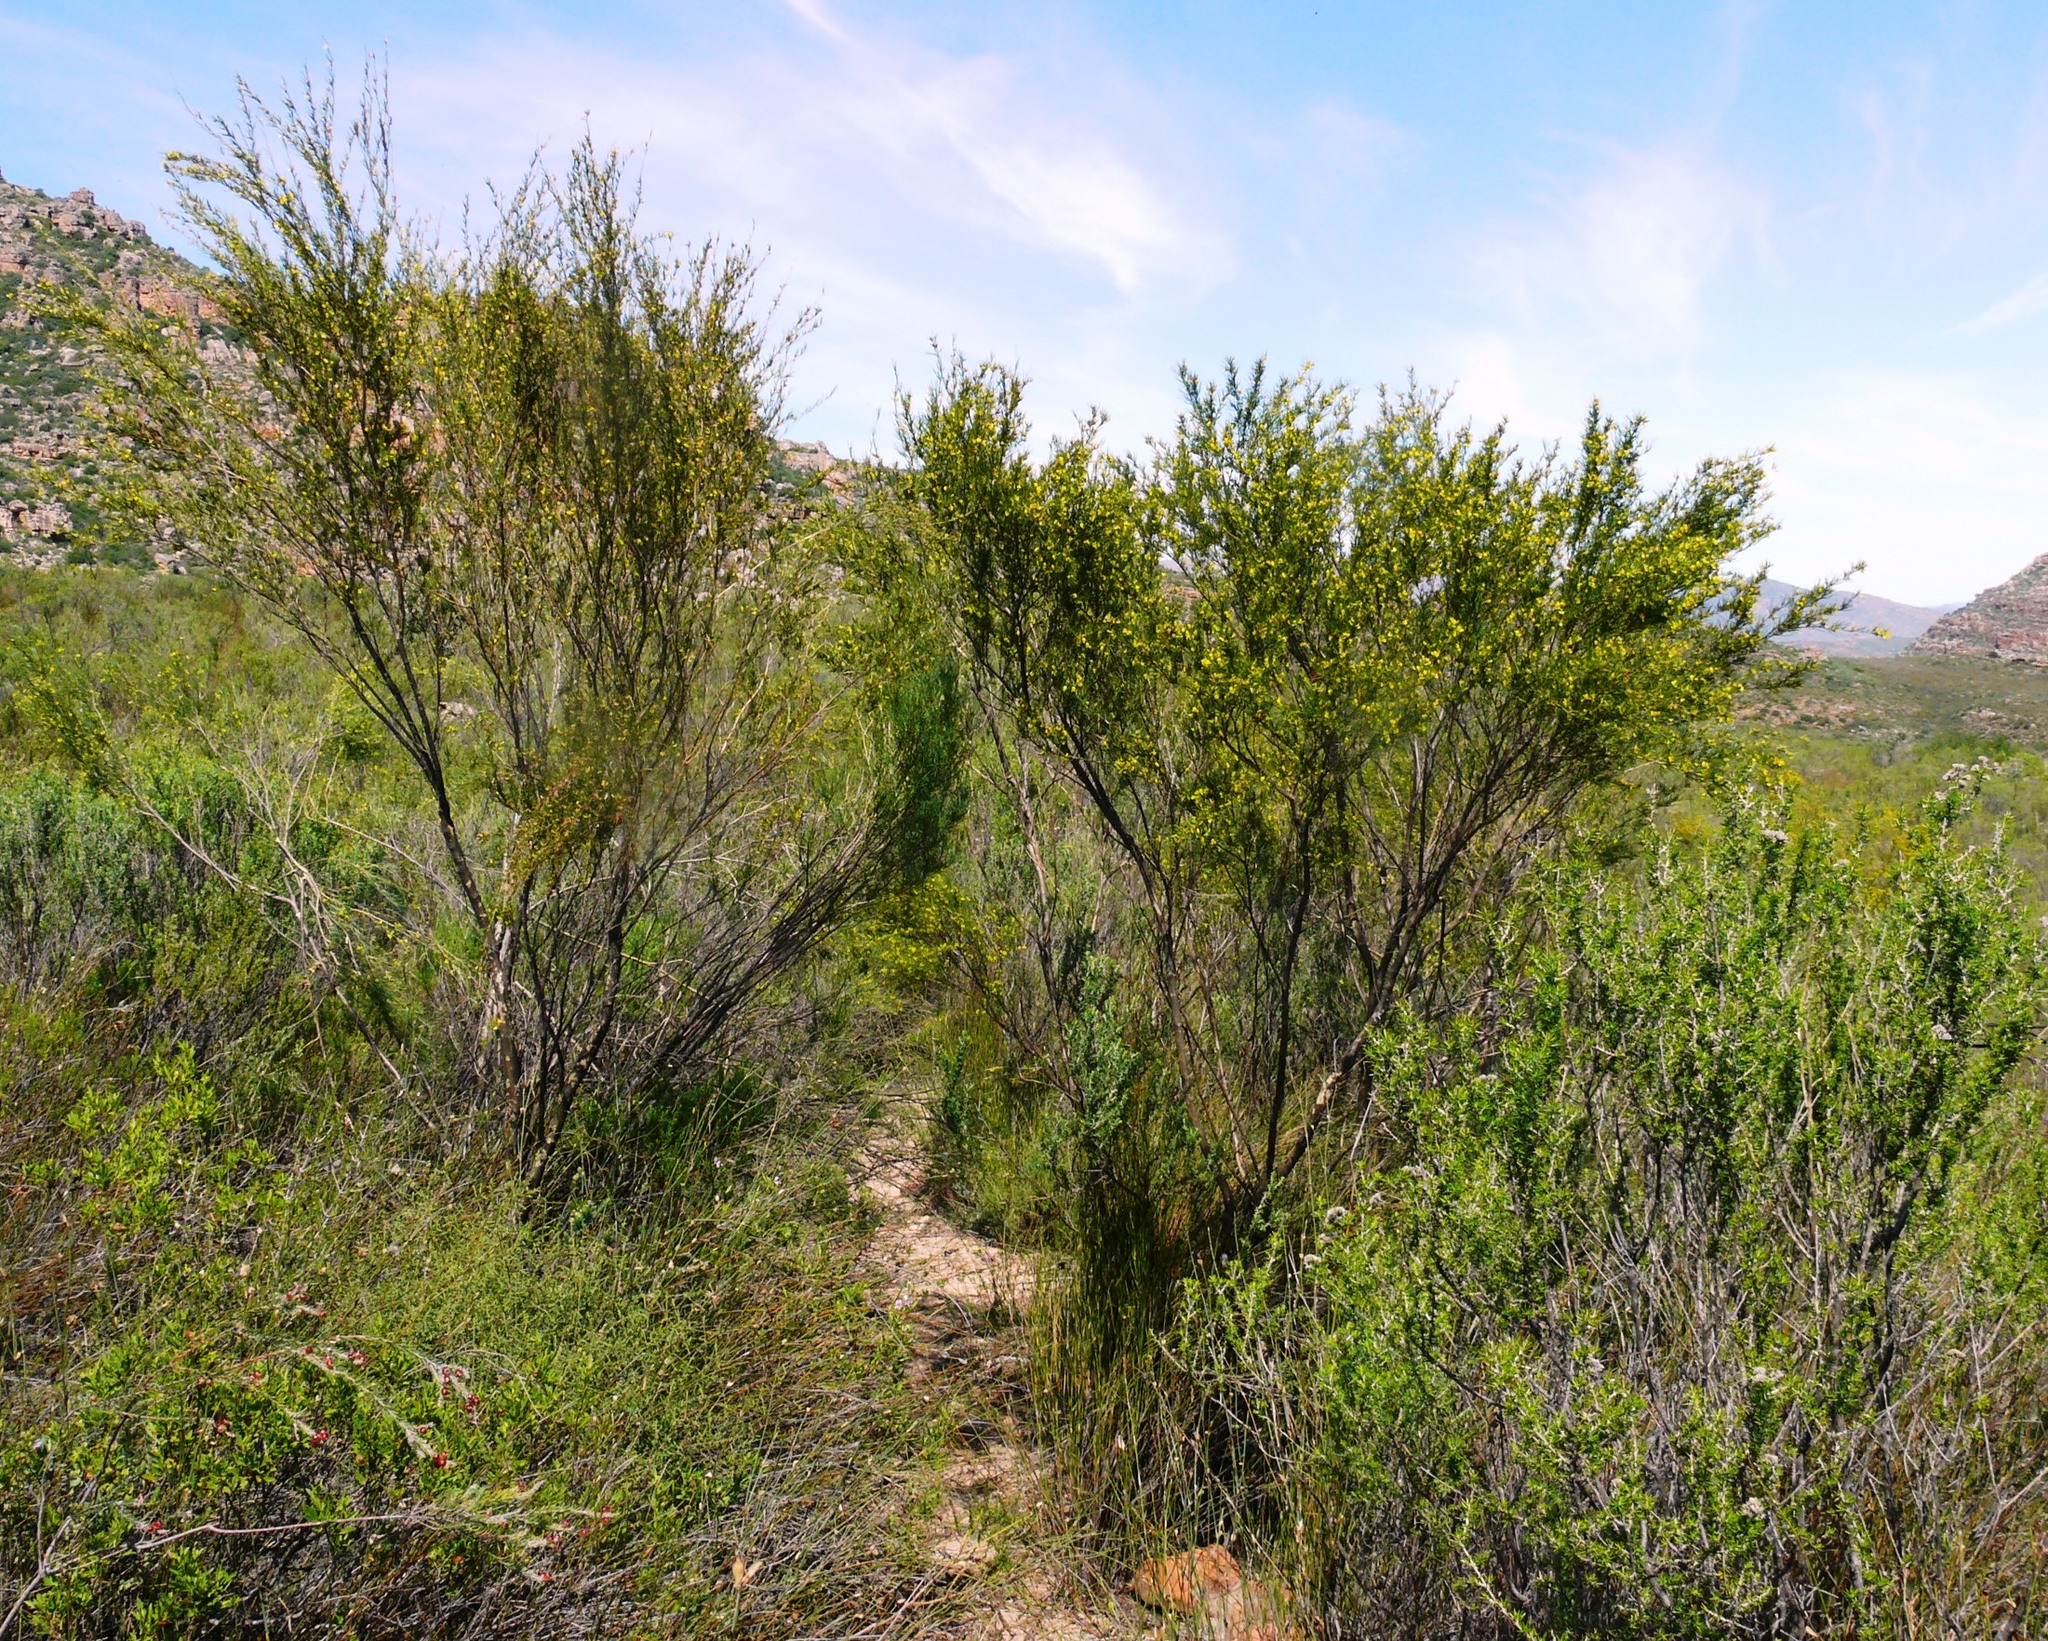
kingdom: Plantae
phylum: Tracheophyta
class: Magnoliopsida
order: Fabales
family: Fabaceae
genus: Aspalathus
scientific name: Aspalathus linearis
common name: Rooibos-tea
